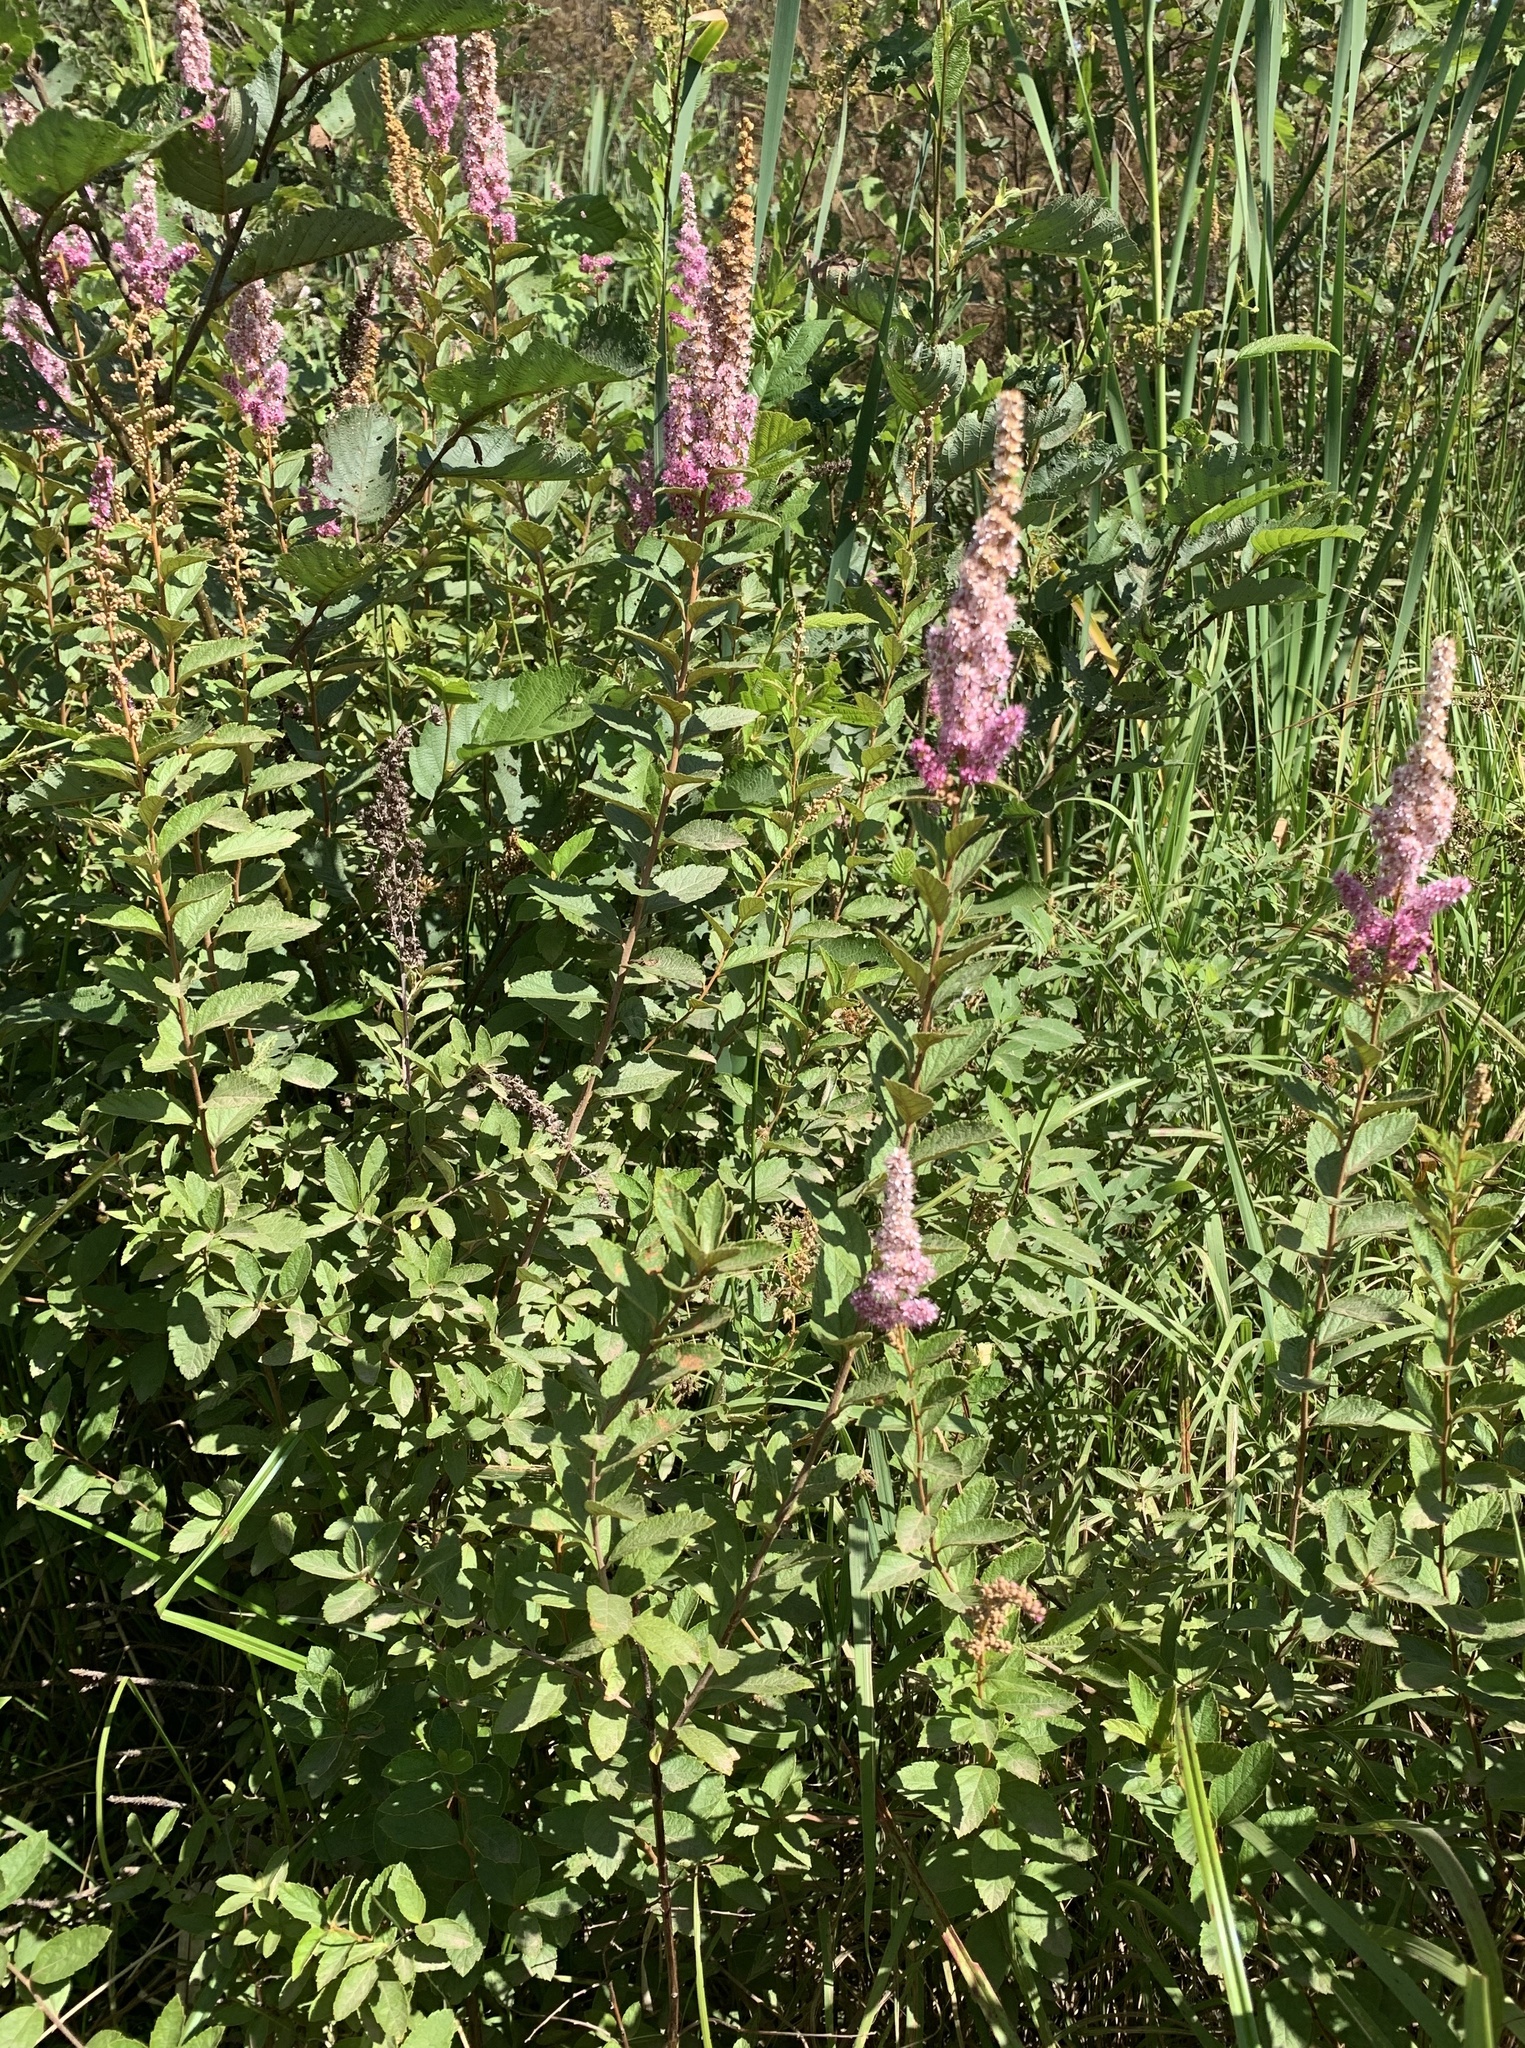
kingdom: Plantae
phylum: Tracheophyta
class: Magnoliopsida
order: Rosales
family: Rosaceae
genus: Spiraea
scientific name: Spiraea tomentosa
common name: Hardhack
